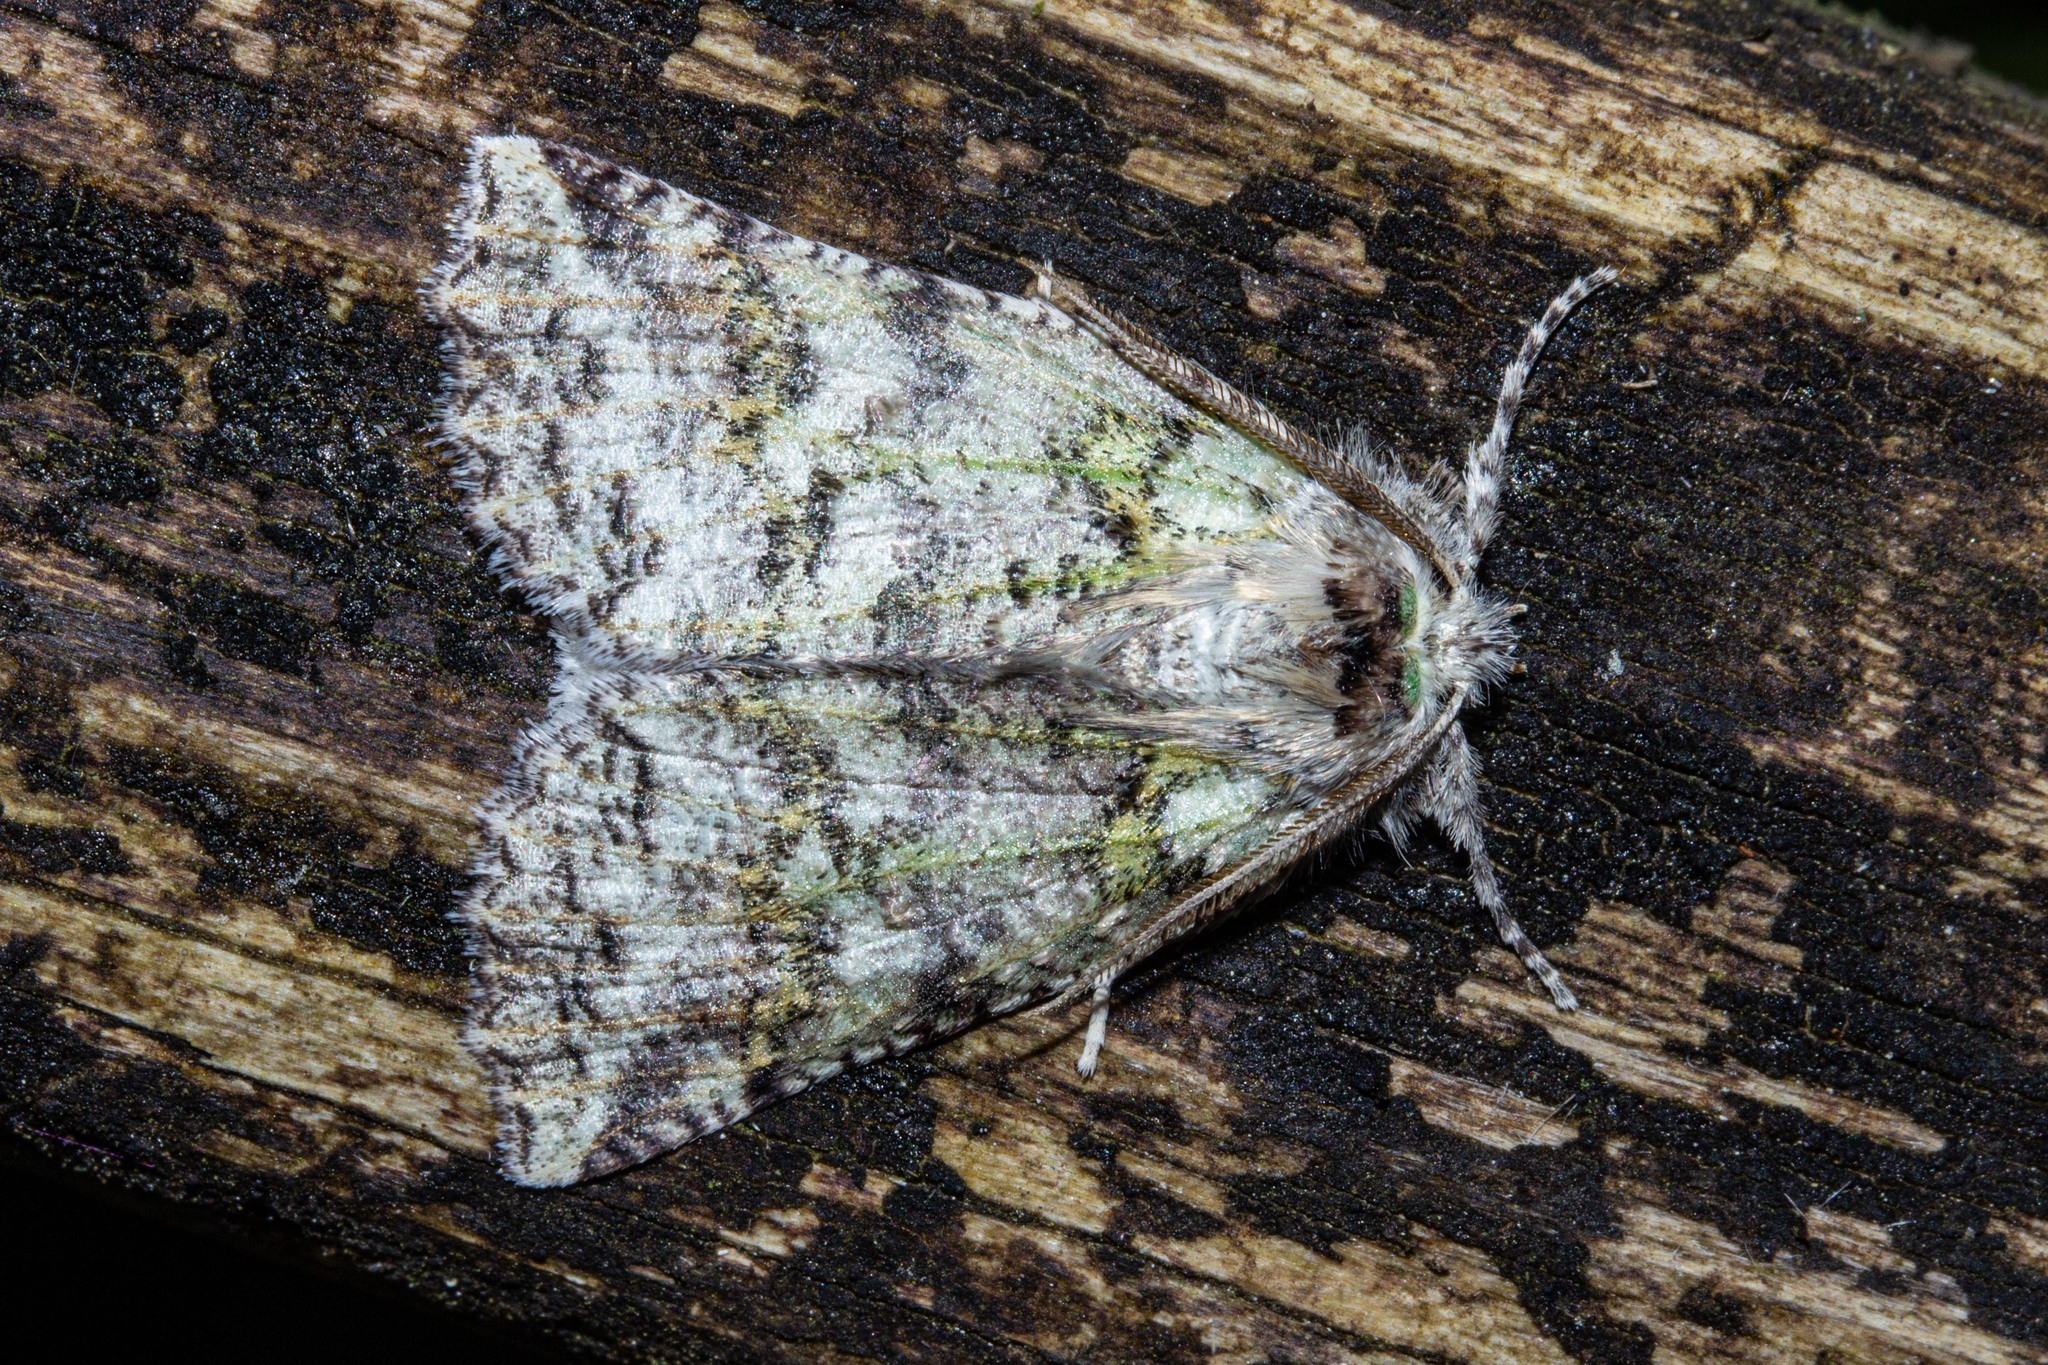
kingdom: Animalia
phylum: Arthropoda
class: Insecta
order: Lepidoptera
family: Geometridae
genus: Declana
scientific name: Declana floccosa
